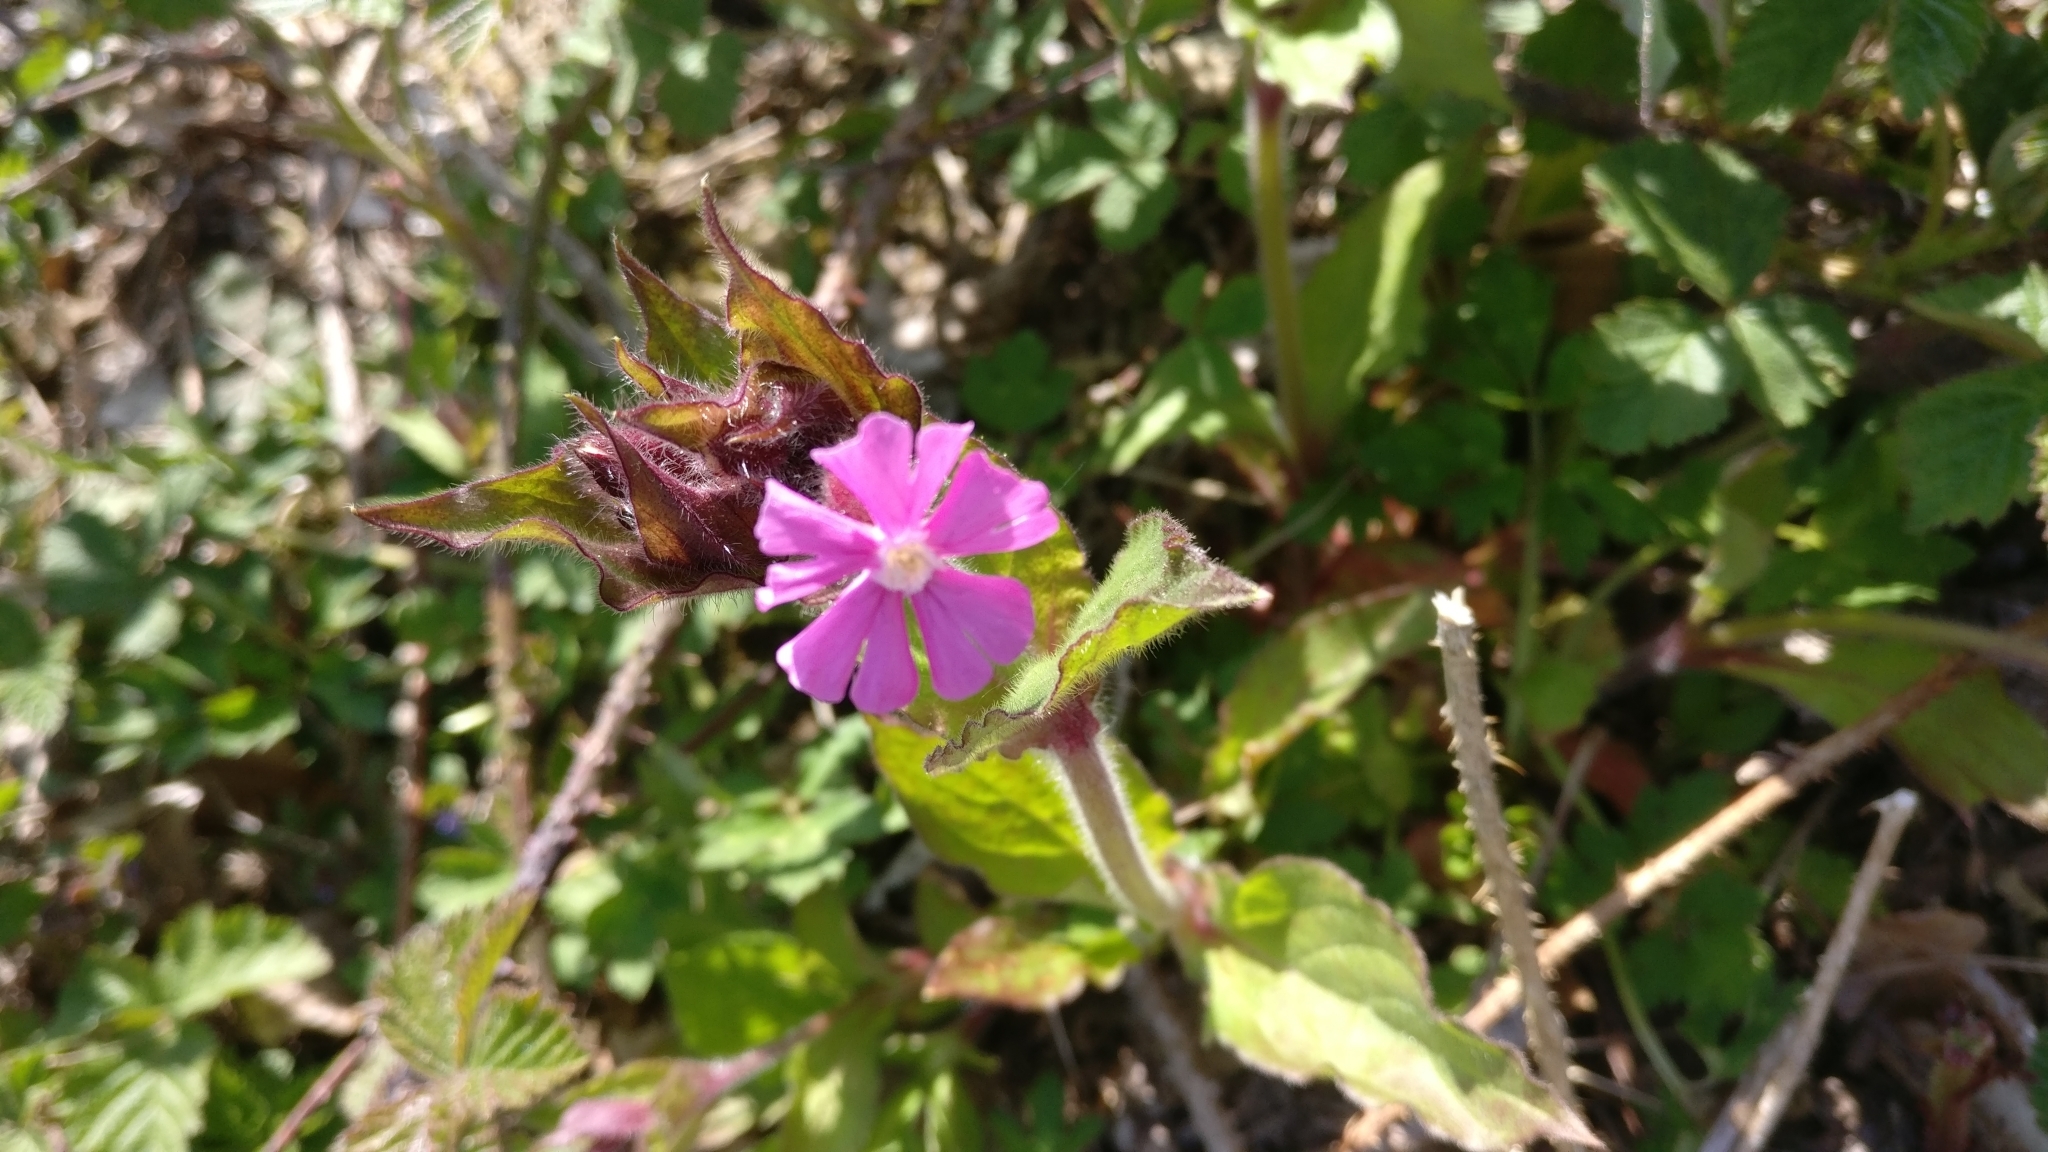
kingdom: Plantae
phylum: Tracheophyta
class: Magnoliopsida
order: Caryophyllales
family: Caryophyllaceae
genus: Silene
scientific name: Silene dioica
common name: Red campion
